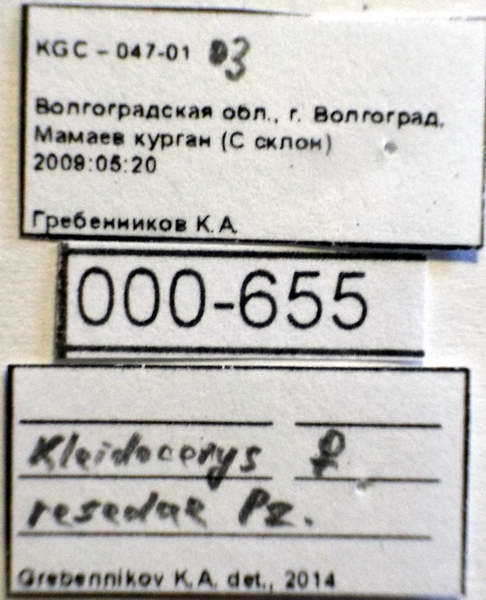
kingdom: Animalia
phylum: Arthropoda
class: Insecta
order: Hemiptera
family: Lygaeidae
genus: Kleidocerys
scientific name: Kleidocerys resedae
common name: Birch catkin bug
